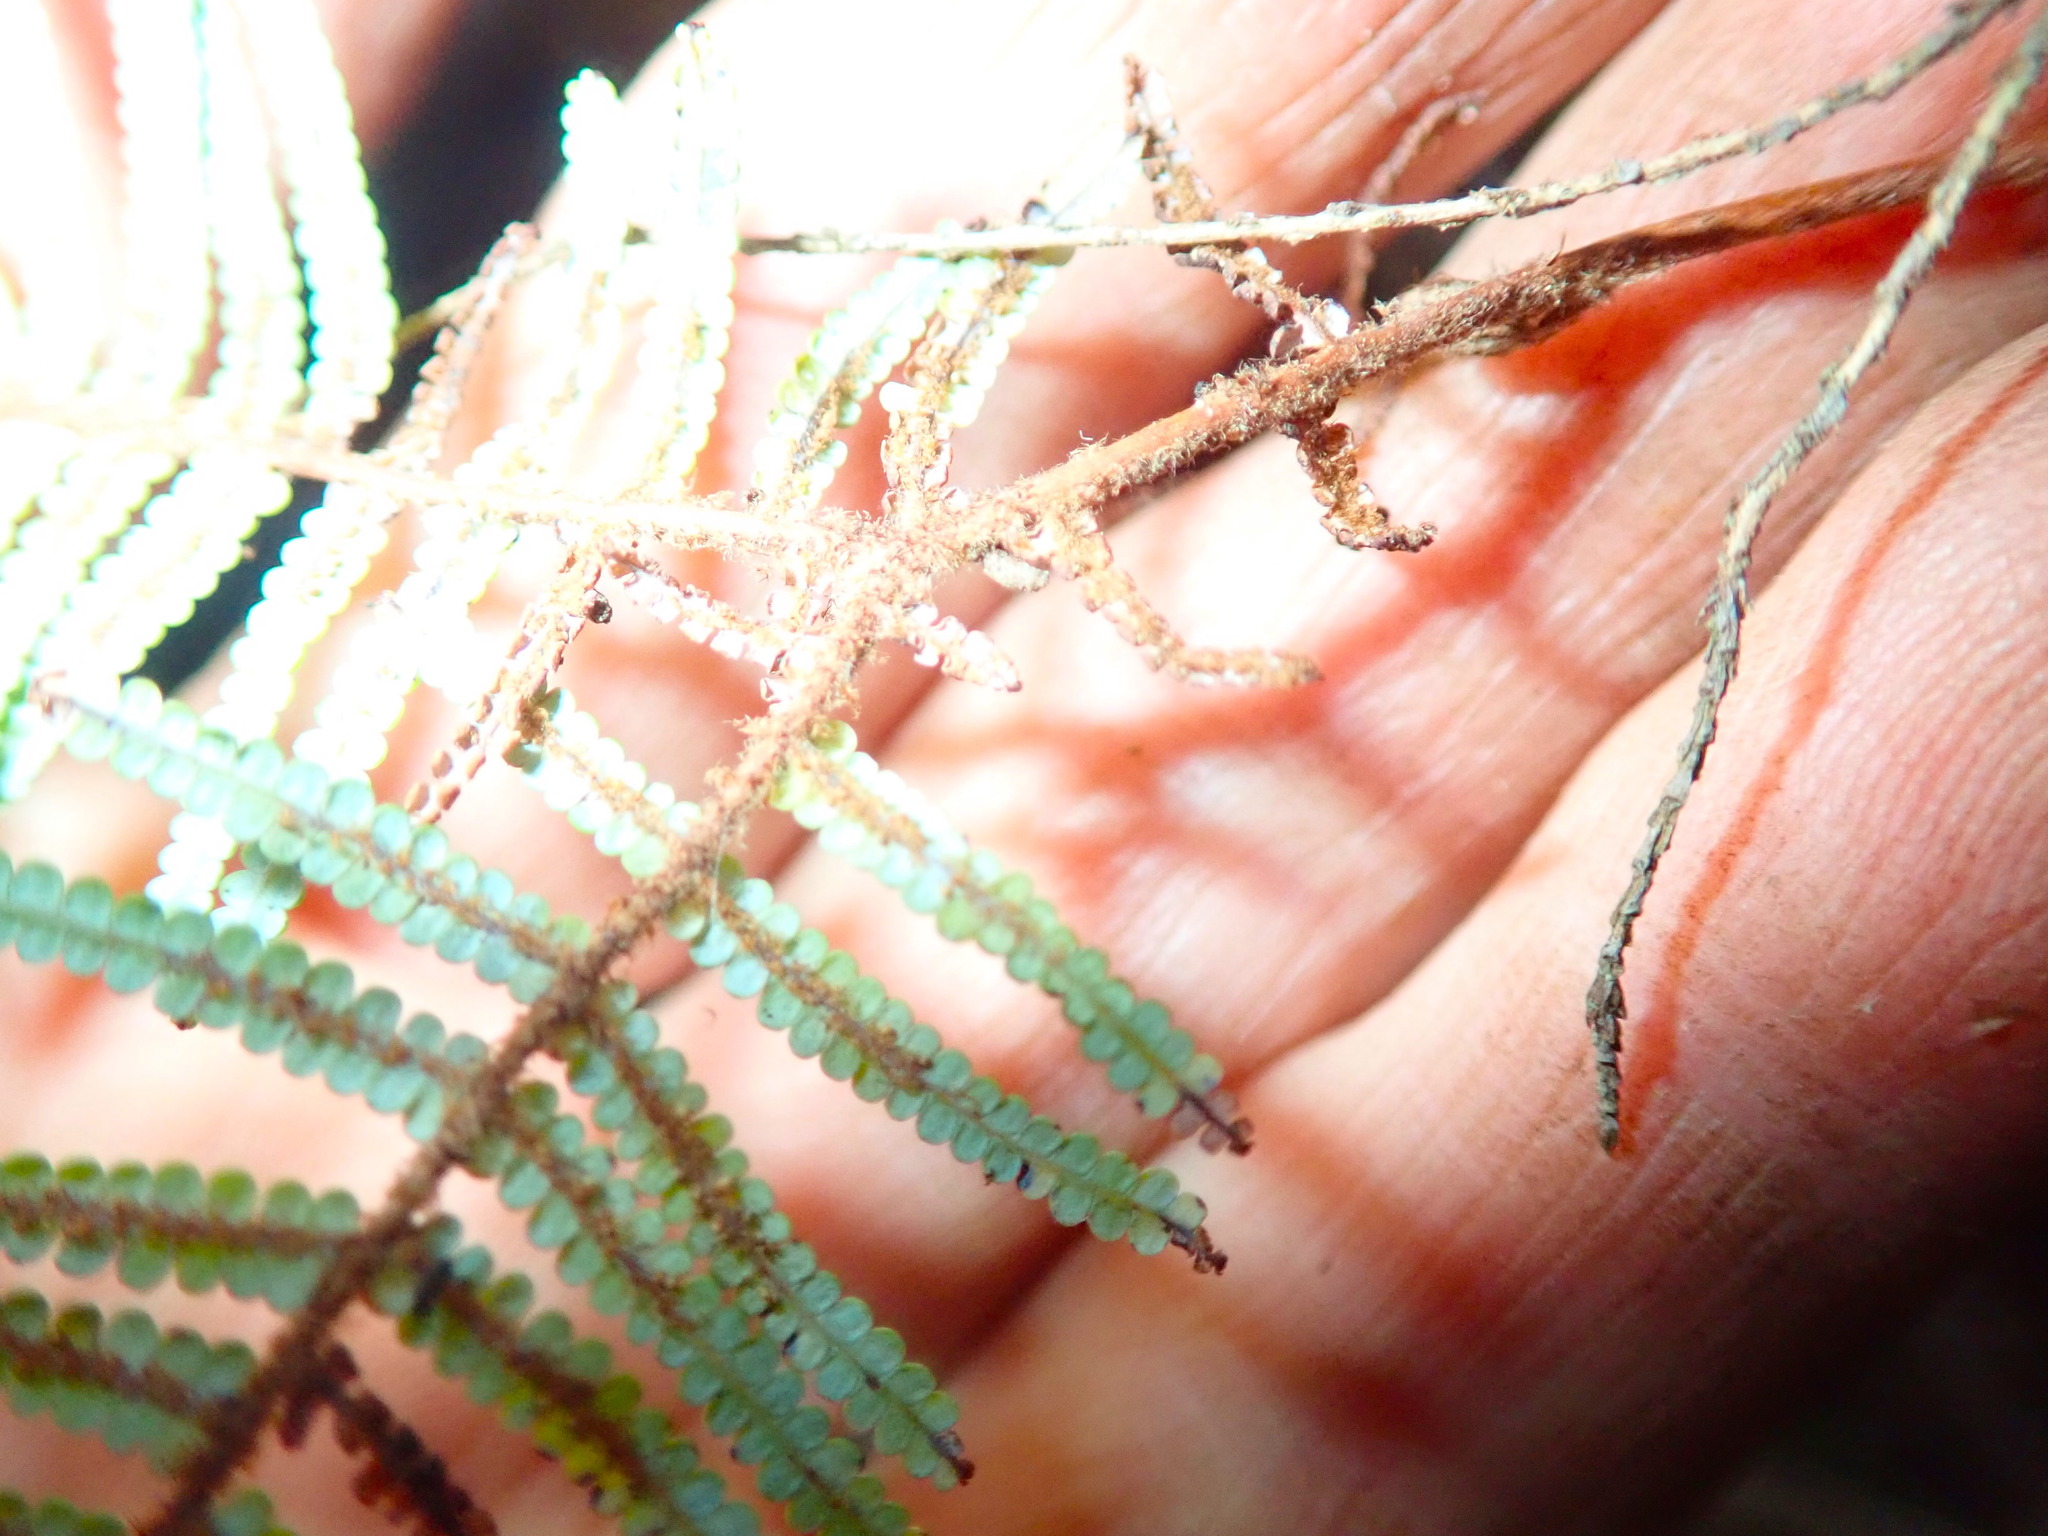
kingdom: Plantae
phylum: Tracheophyta
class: Polypodiopsida
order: Gleicheniales
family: Gleicheniaceae
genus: Gleichenia
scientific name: Gleichenia dicarpa
